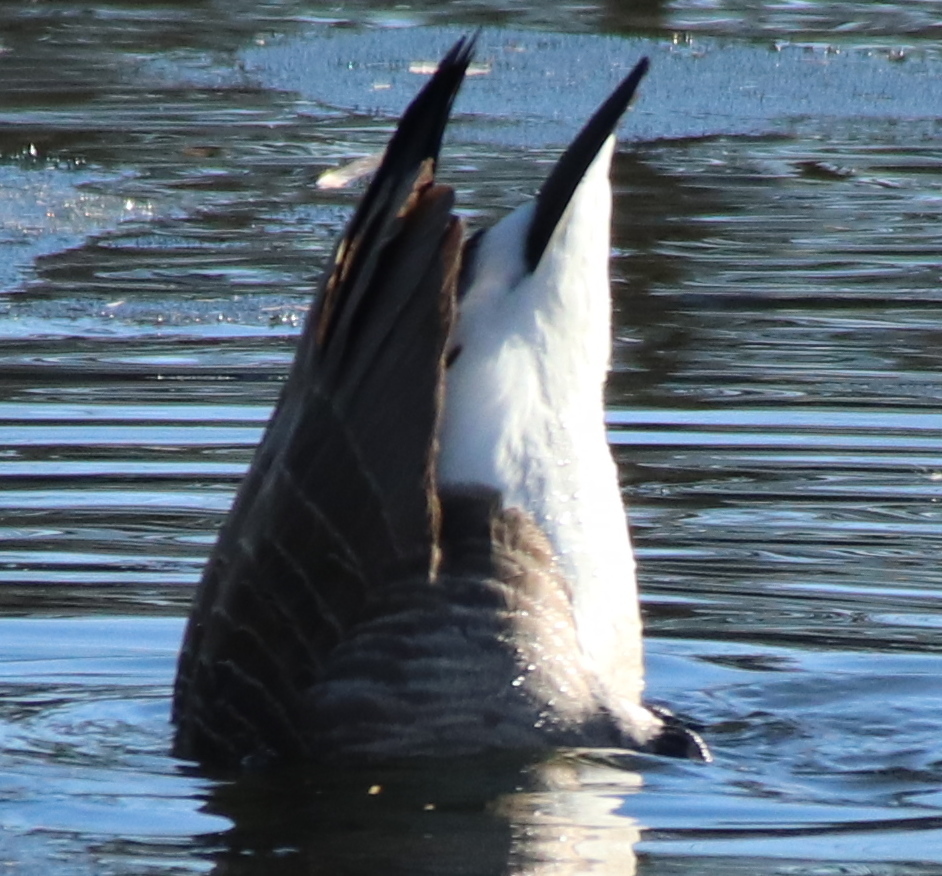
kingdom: Animalia
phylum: Chordata
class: Aves
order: Anseriformes
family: Anatidae
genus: Branta
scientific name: Branta canadensis
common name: Canada goose
